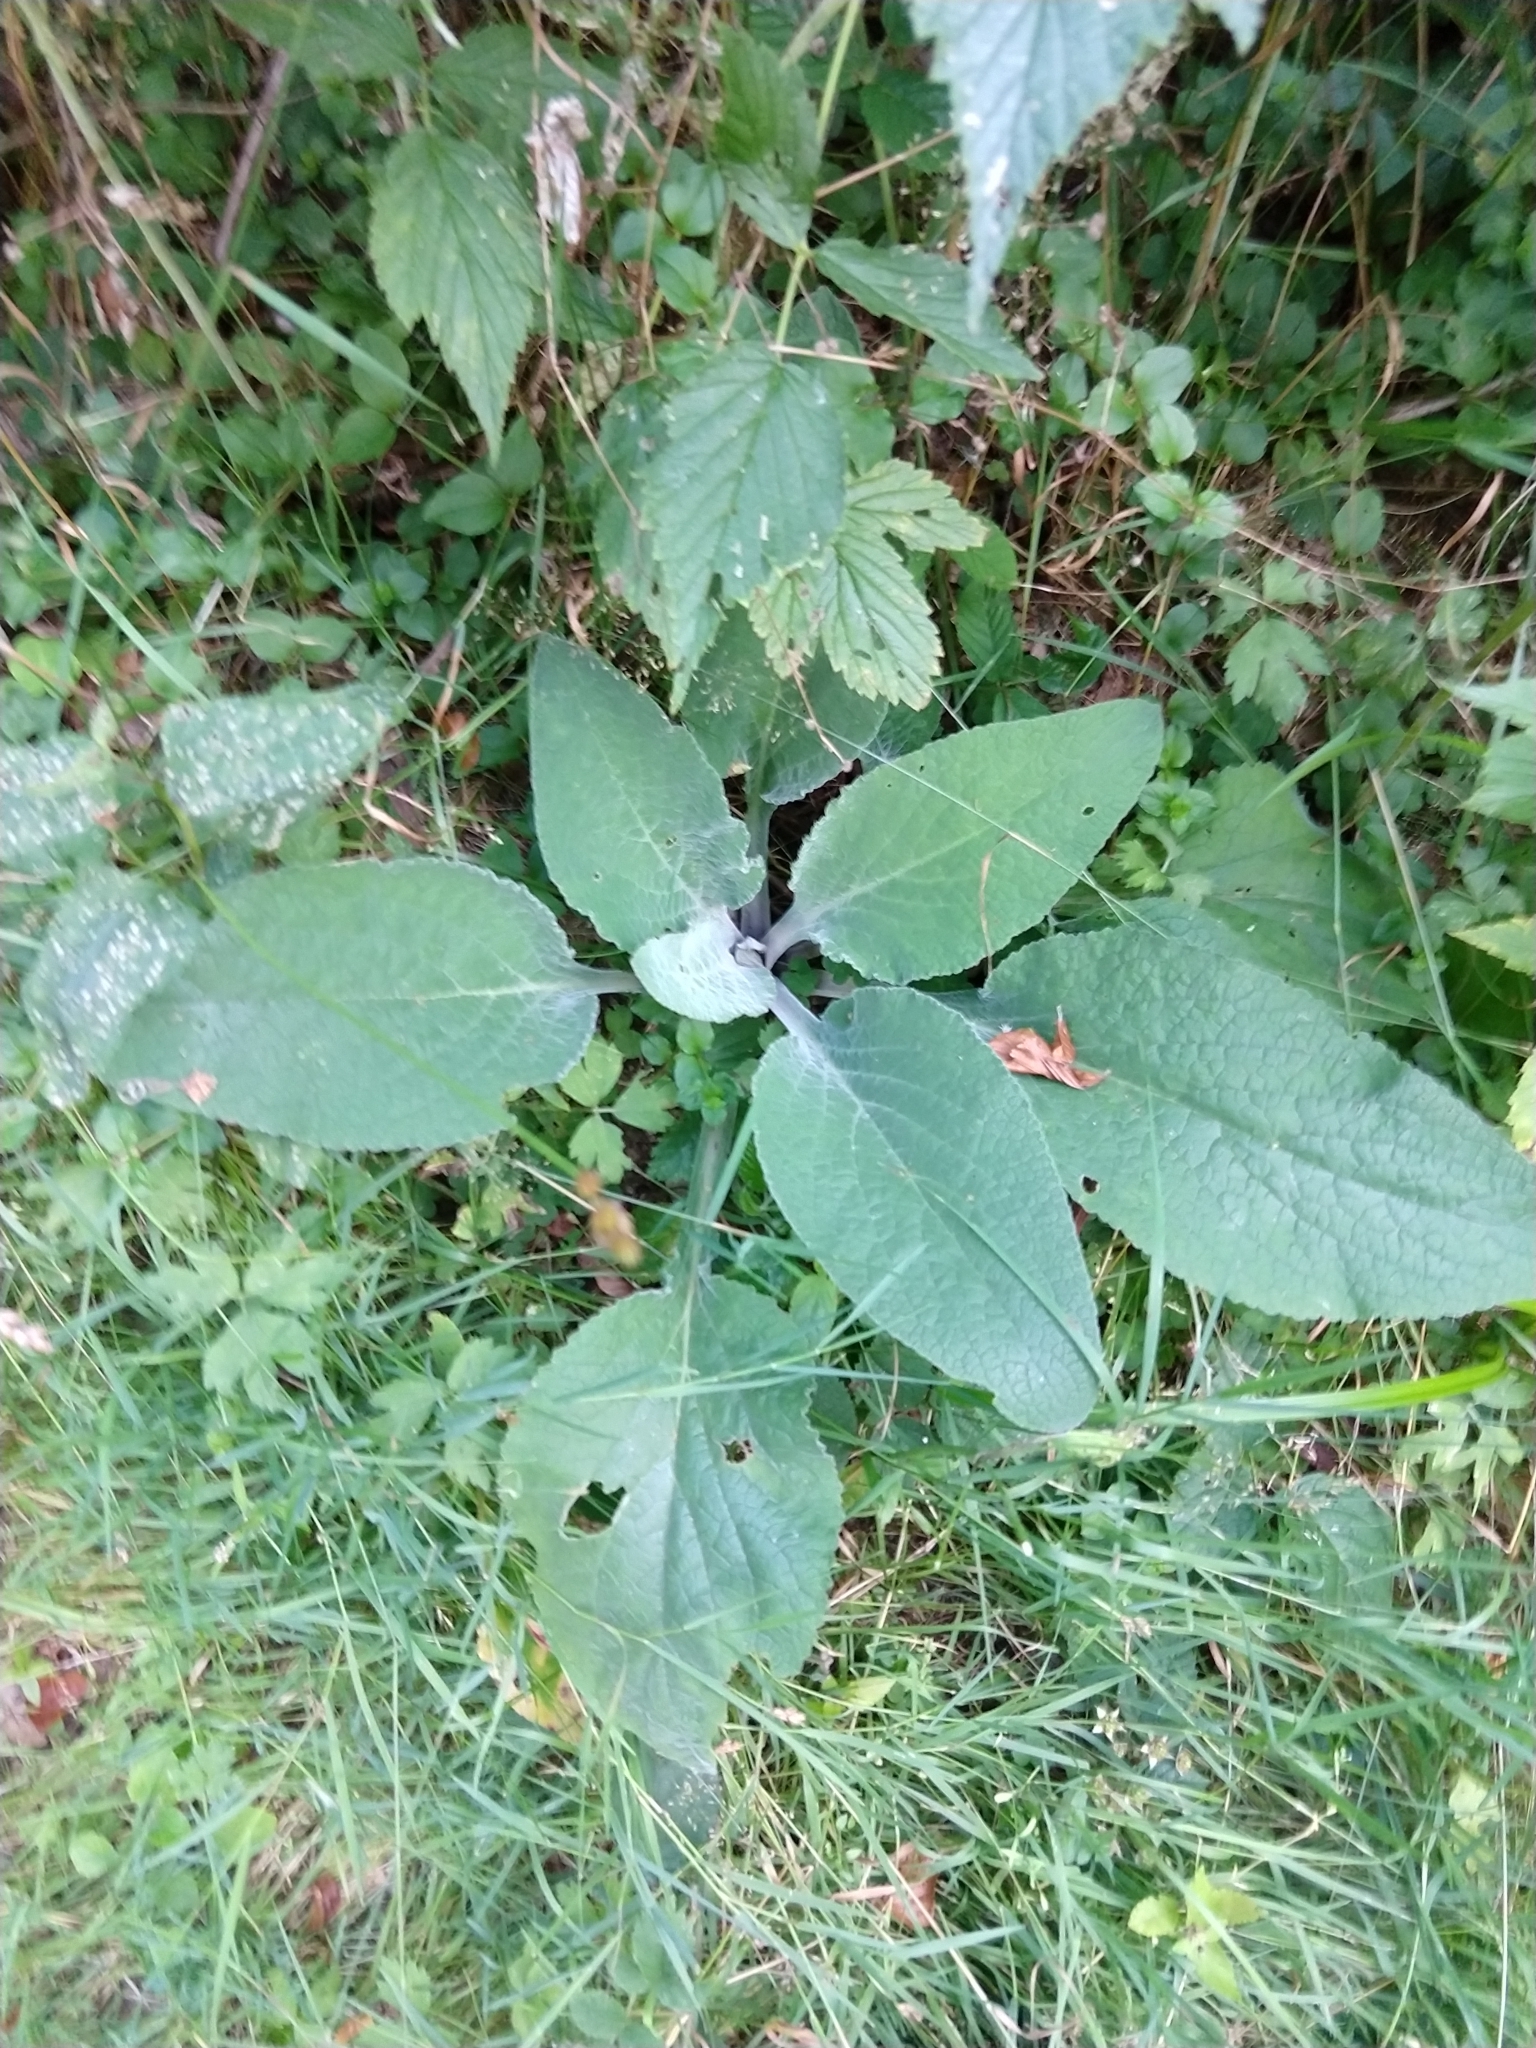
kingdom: Plantae
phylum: Tracheophyta
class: Magnoliopsida
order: Lamiales
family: Plantaginaceae
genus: Digitalis
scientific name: Digitalis purpurea
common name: Foxglove
